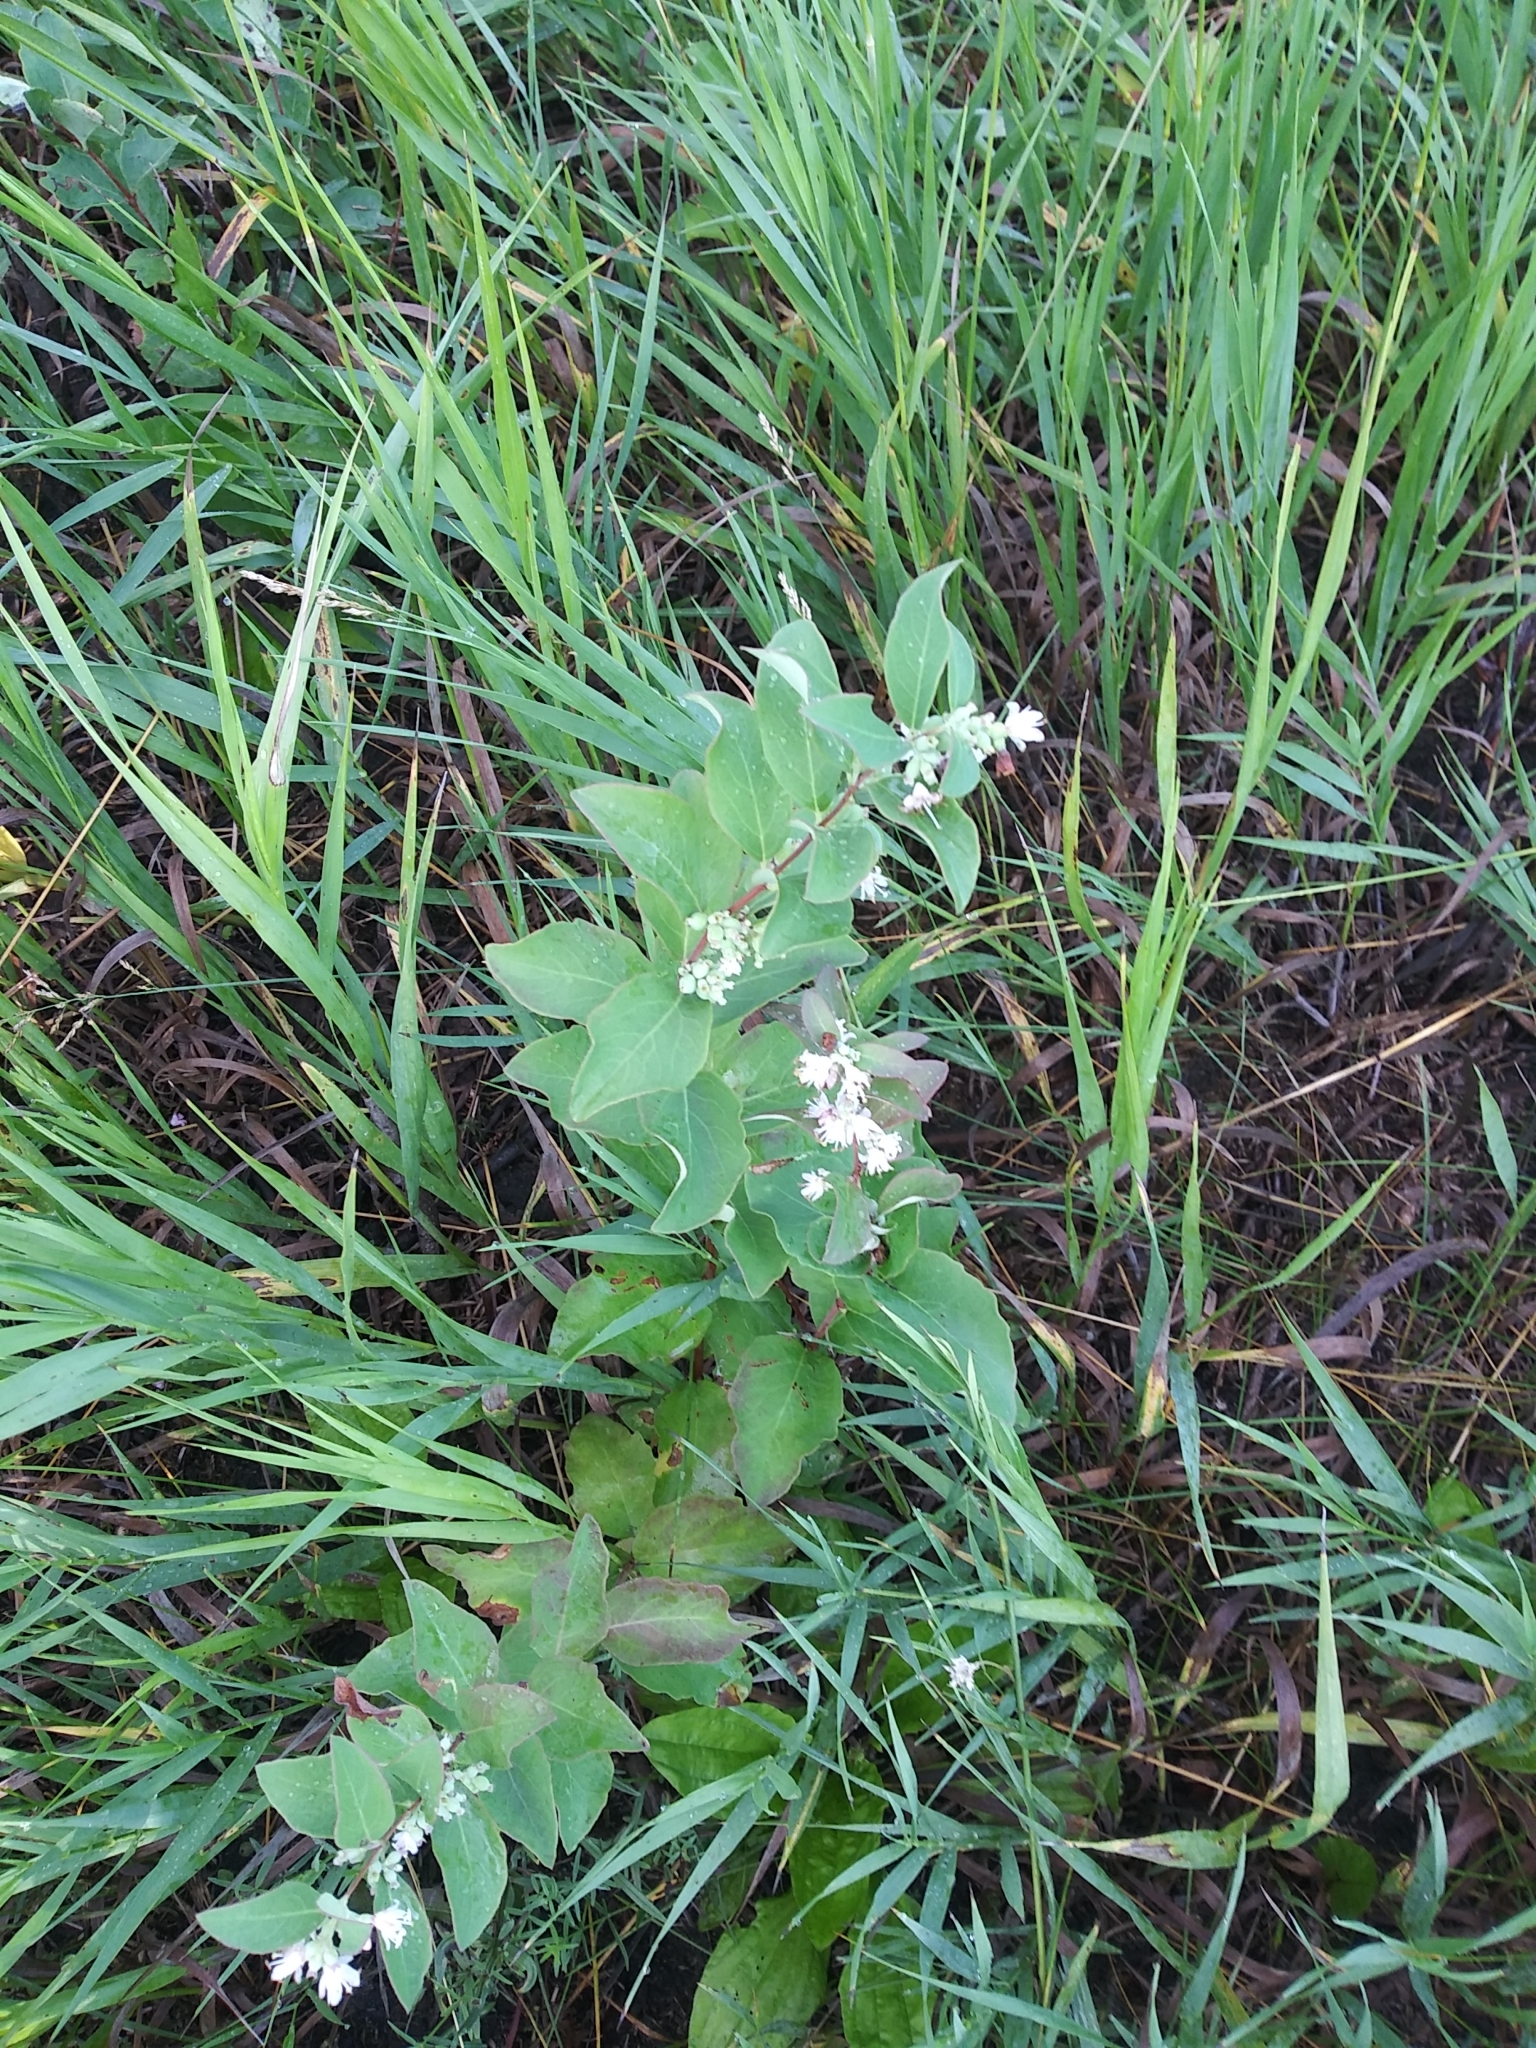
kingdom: Plantae
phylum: Tracheophyta
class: Magnoliopsida
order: Dipsacales
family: Caprifoliaceae
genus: Symphoricarpos
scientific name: Symphoricarpos occidentalis
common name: Wolfberry
